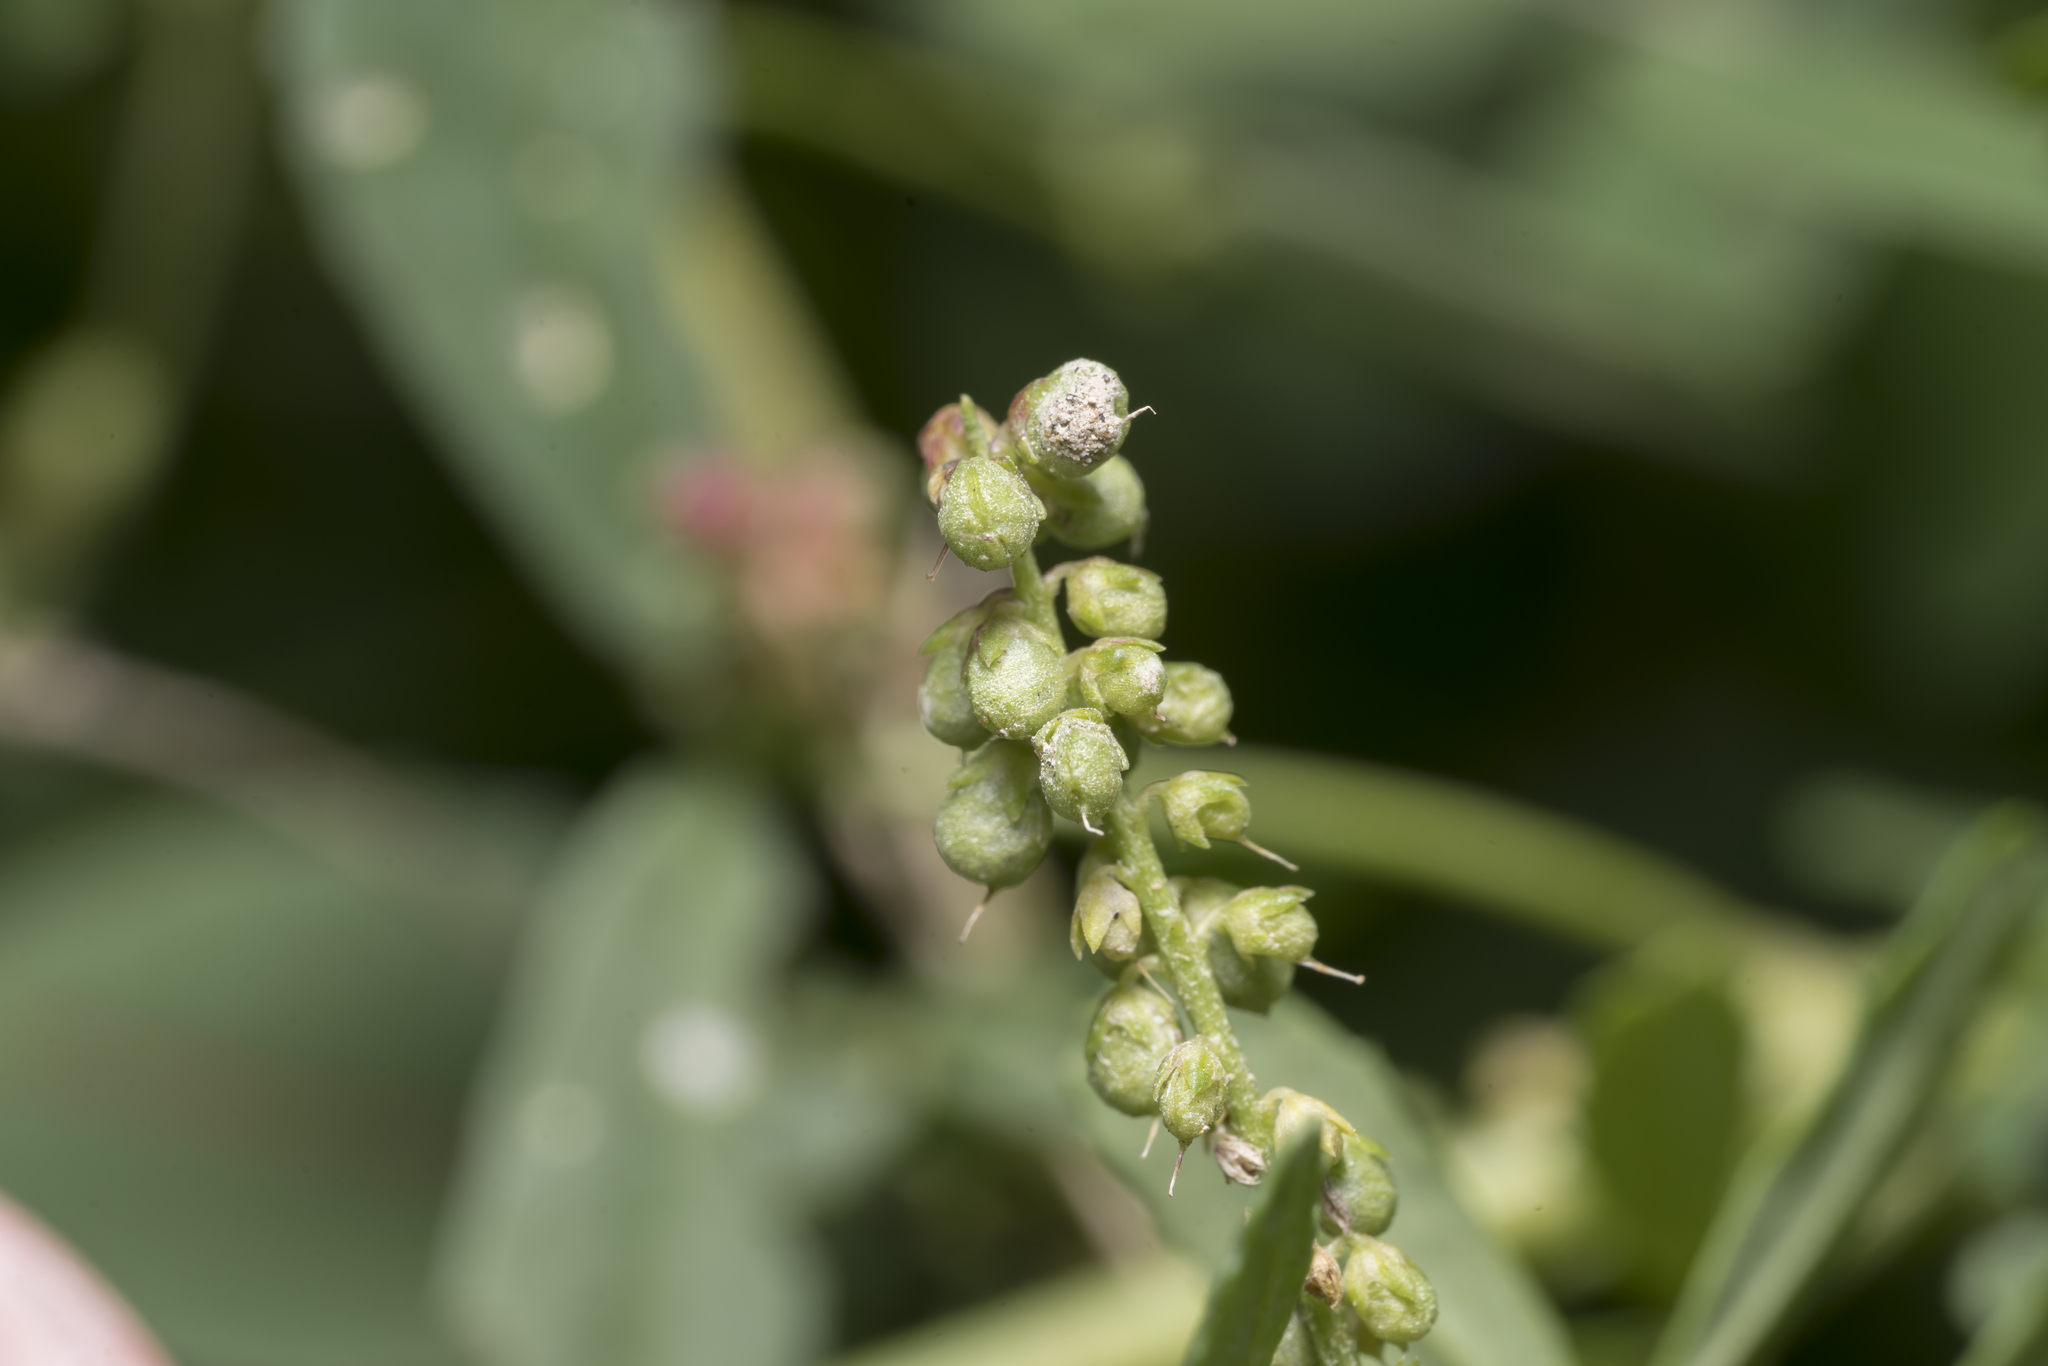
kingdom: Plantae
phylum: Tracheophyta
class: Magnoliopsida
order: Fabales
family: Fabaceae
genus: Melilotus
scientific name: Melilotus indicus
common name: Small melilot
